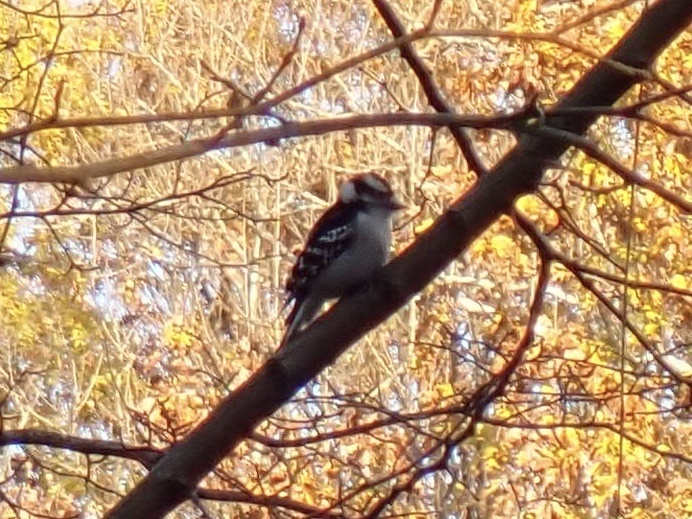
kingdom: Animalia
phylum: Chordata
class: Aves
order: Piciformes
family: Picidae
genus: Dryobates
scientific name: Dryobates pubescens
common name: Downy woodpecker
